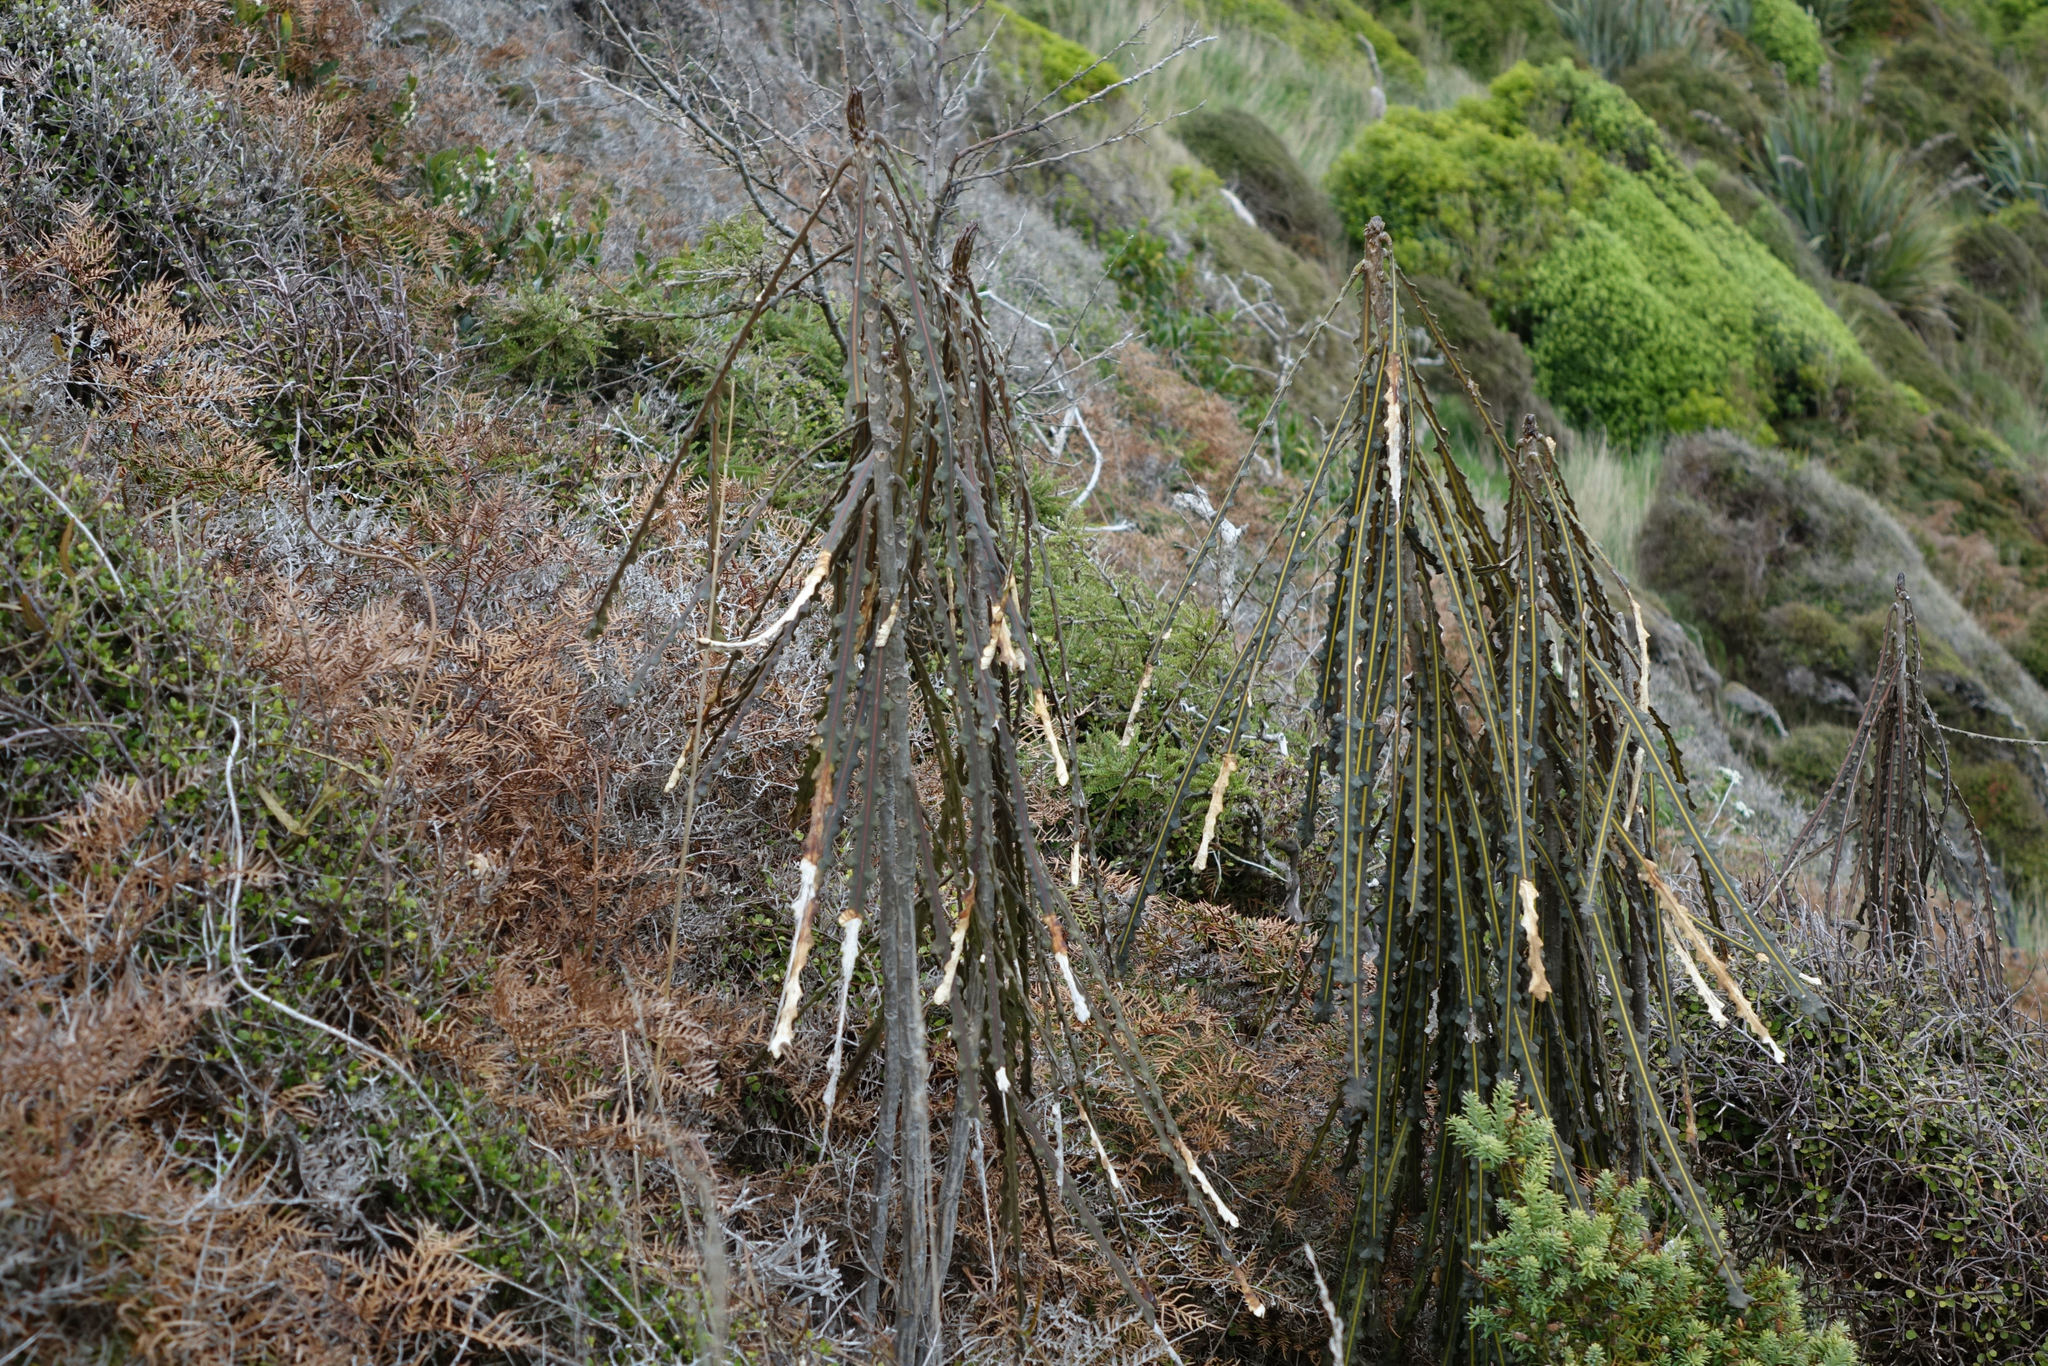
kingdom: Plantae
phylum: Tracheophyta
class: Magnoliopsida
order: Apiales
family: Araliaceae
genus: Pseudopanax
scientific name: Pseudopanax ferox
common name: Fierce lancewood
